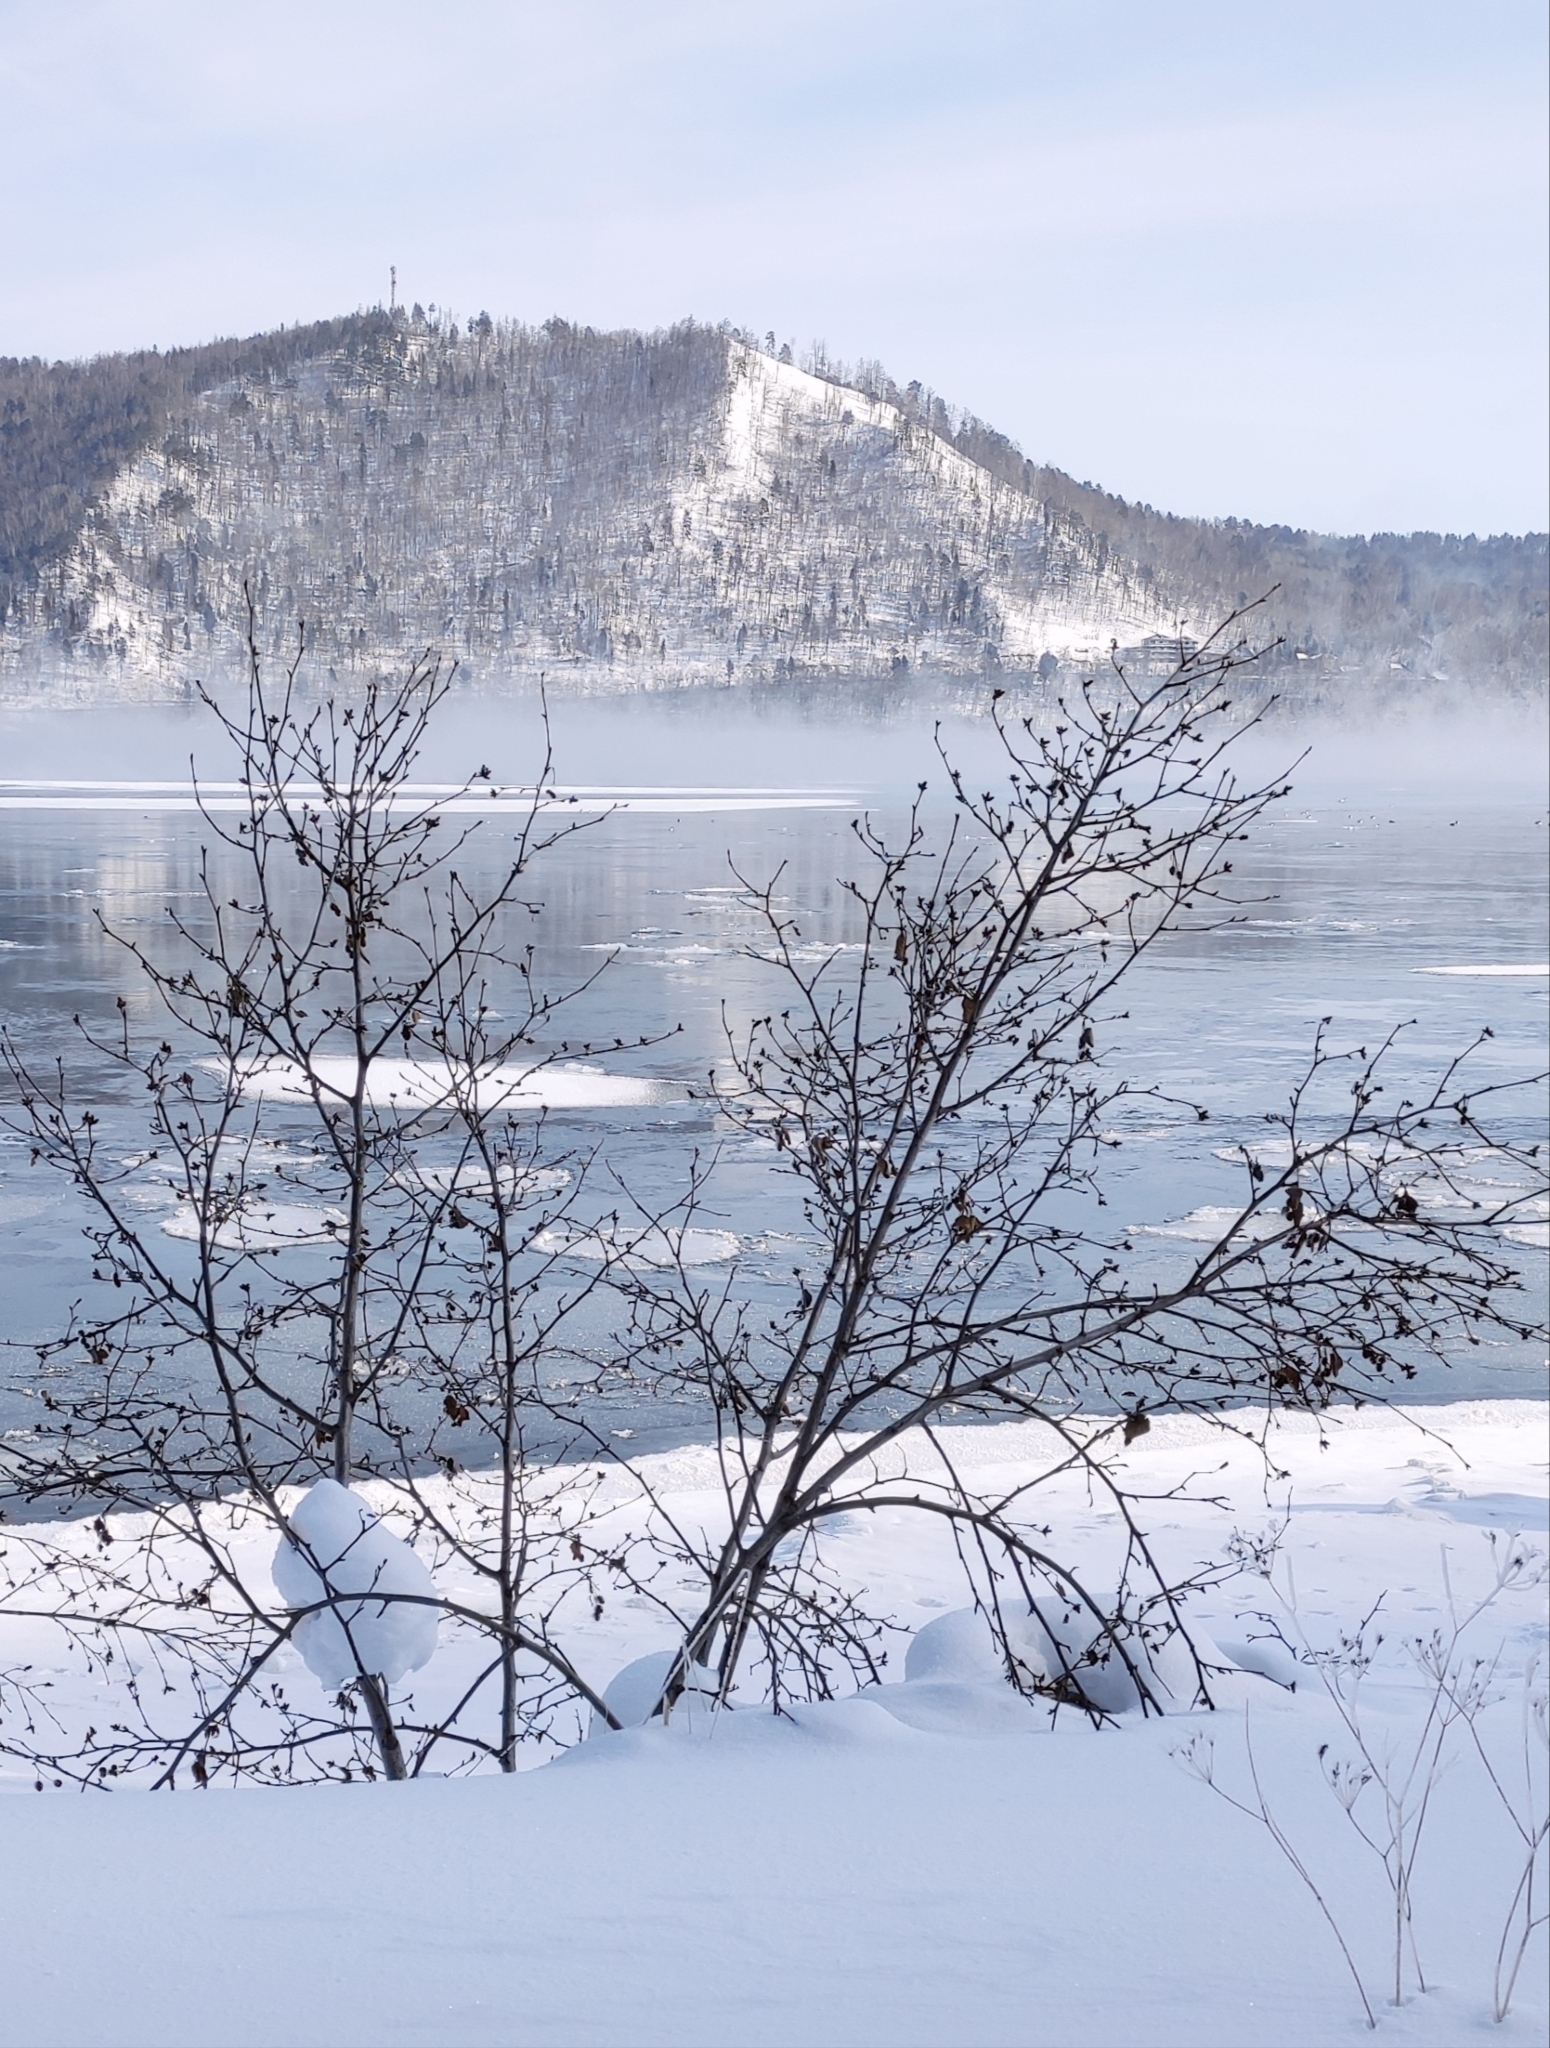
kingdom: Plantae
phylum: Tracheophyta
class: Magnoliopsida
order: Fagales
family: Betulaceae
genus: Alnus
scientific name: Alnus alnobetula
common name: Green alder
